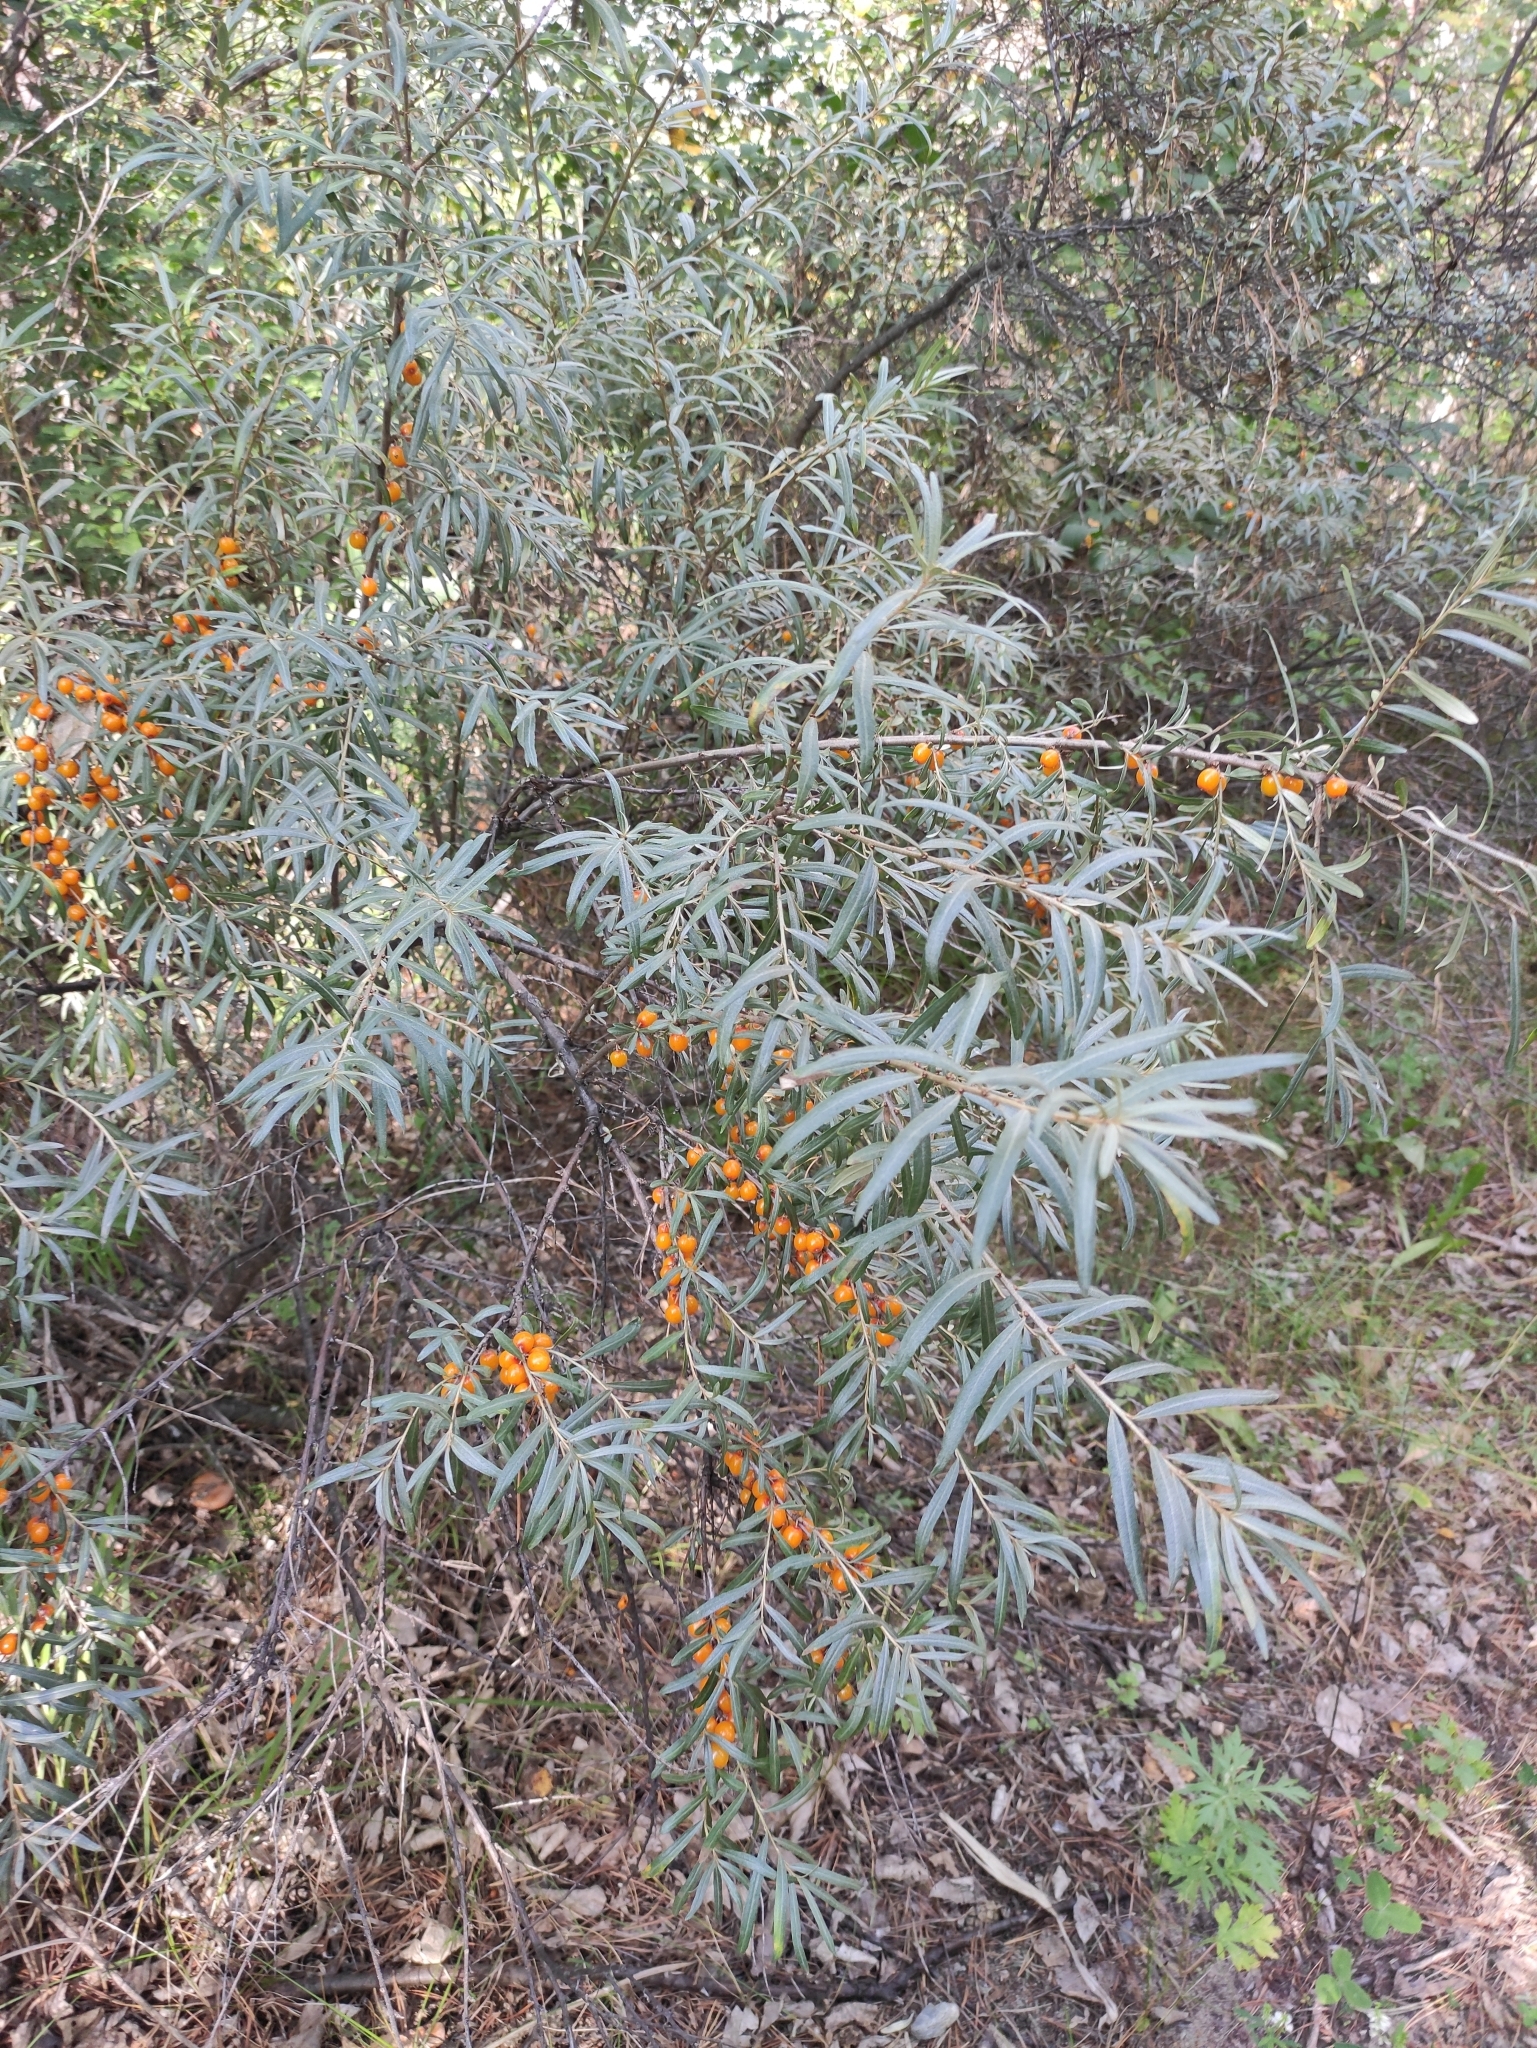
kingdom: Plantae
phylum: Tracheophyta
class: Magnoliopsida
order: Rosales
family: Elaeagnaceae
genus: Hippophae
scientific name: Hippophae rhamnoides
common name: Sea-buckthorn
